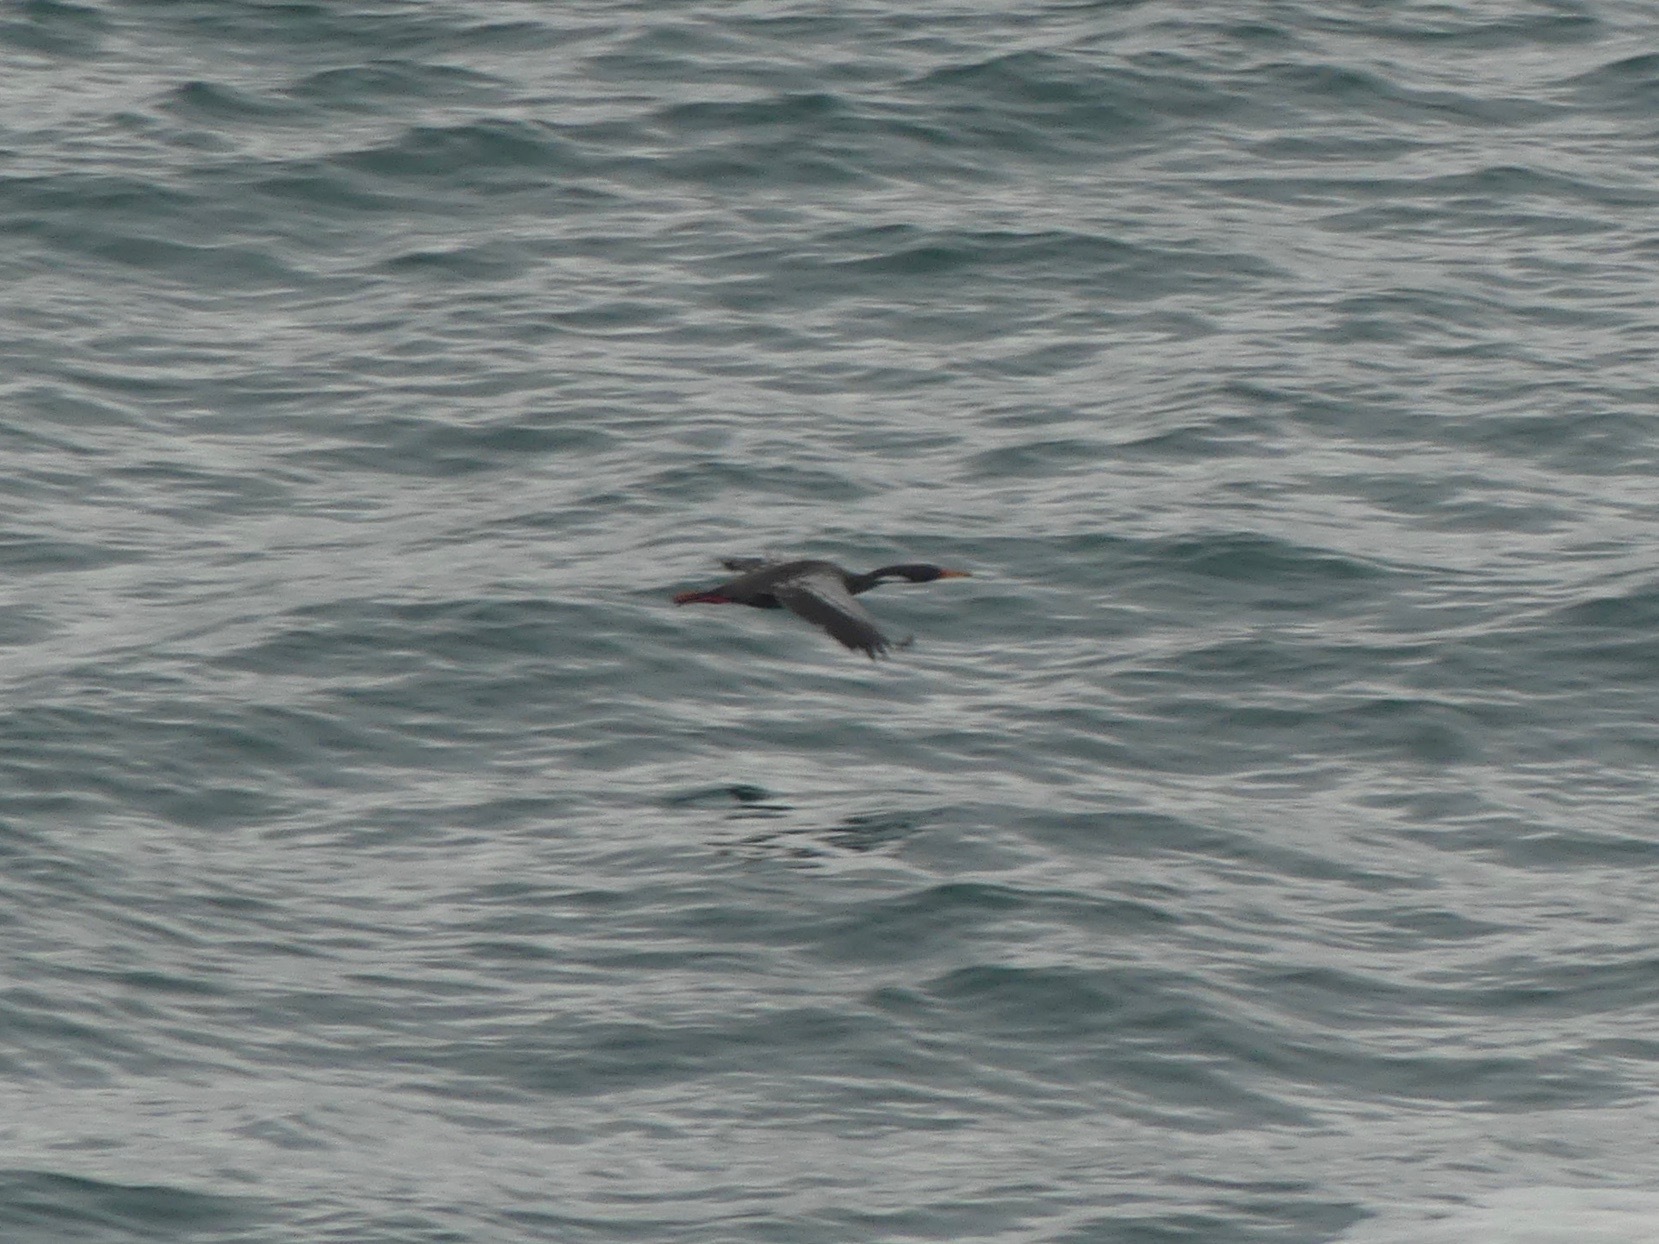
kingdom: Animalia
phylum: Chordata
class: Aves
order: Suliformes
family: Phalacrocoracidae
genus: Phalacrocorax
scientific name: Phalacrocorax gaimardi
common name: Red-legged cormorant
